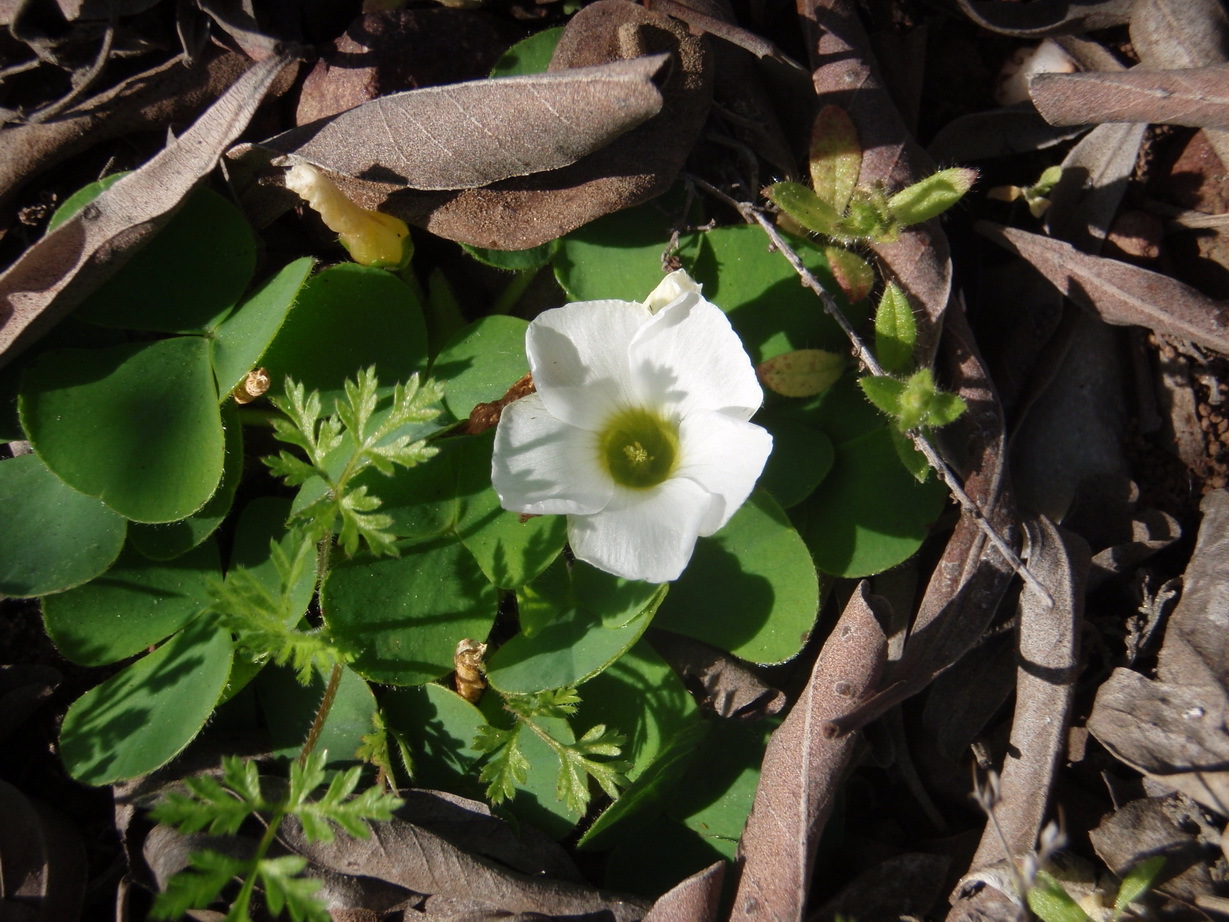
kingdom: Plantae
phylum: Tracheophyta
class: Magnoliopsida
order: Oxalidales
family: Oxalidaceae
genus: Oxalis
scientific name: Oxalis purpurea
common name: Purple woodsorrel
